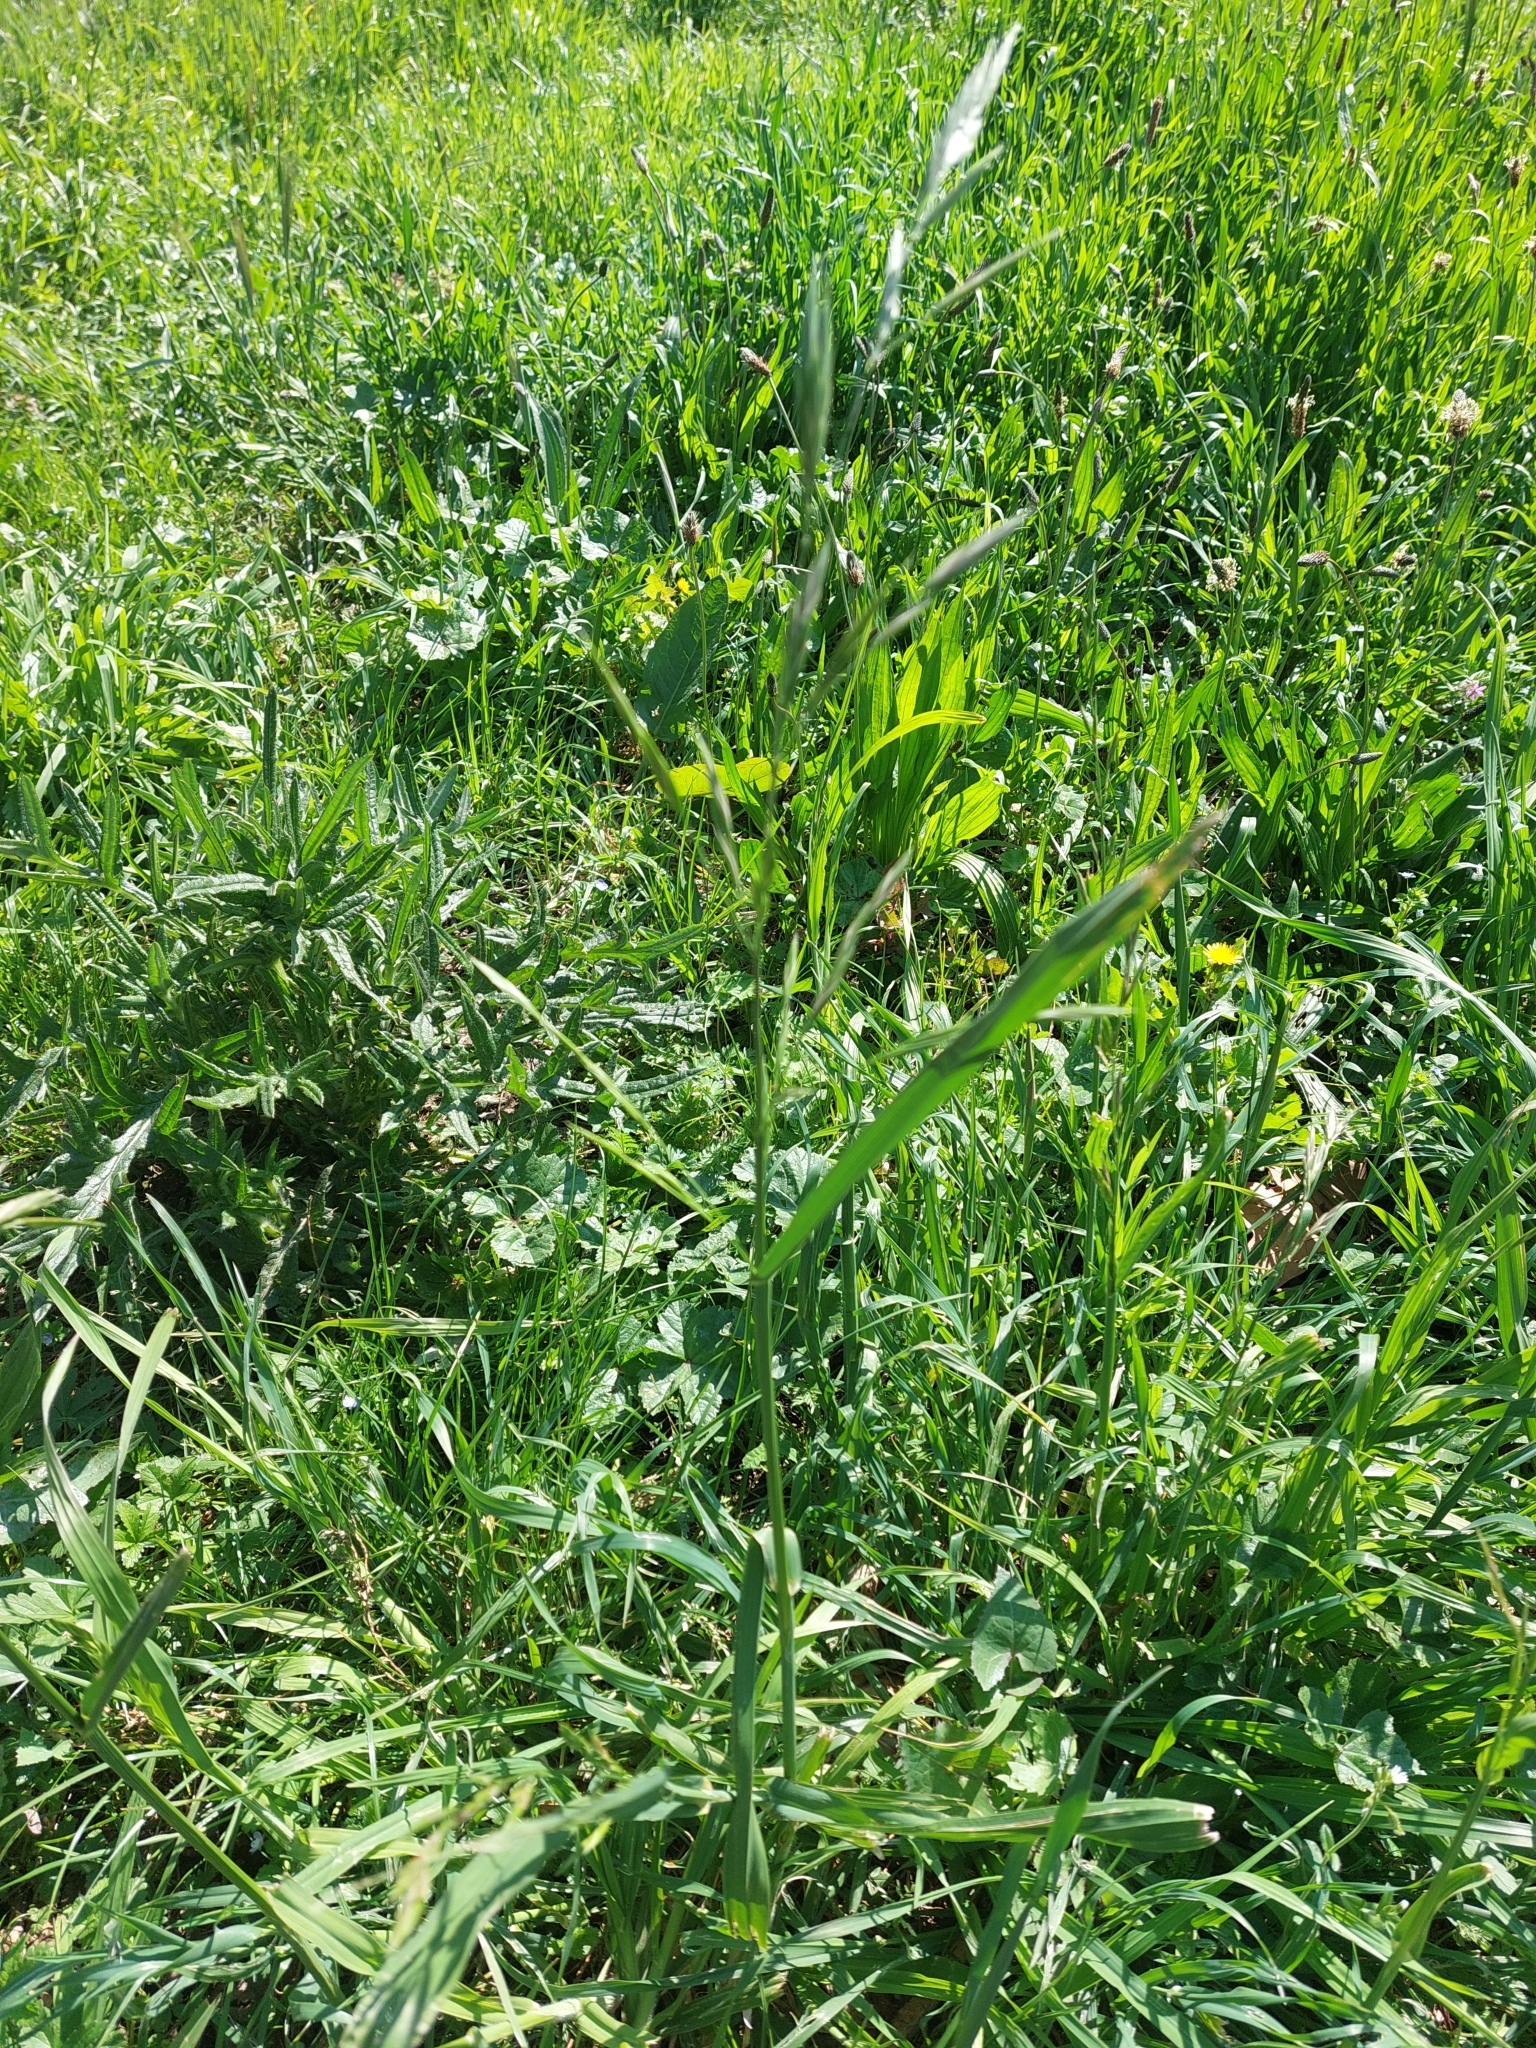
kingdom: Plantae
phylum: Tracheophyta
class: Liliopsida
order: Poales
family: Poaceae
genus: Bromus
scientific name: Bromus catharticus
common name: Rescuegrass
